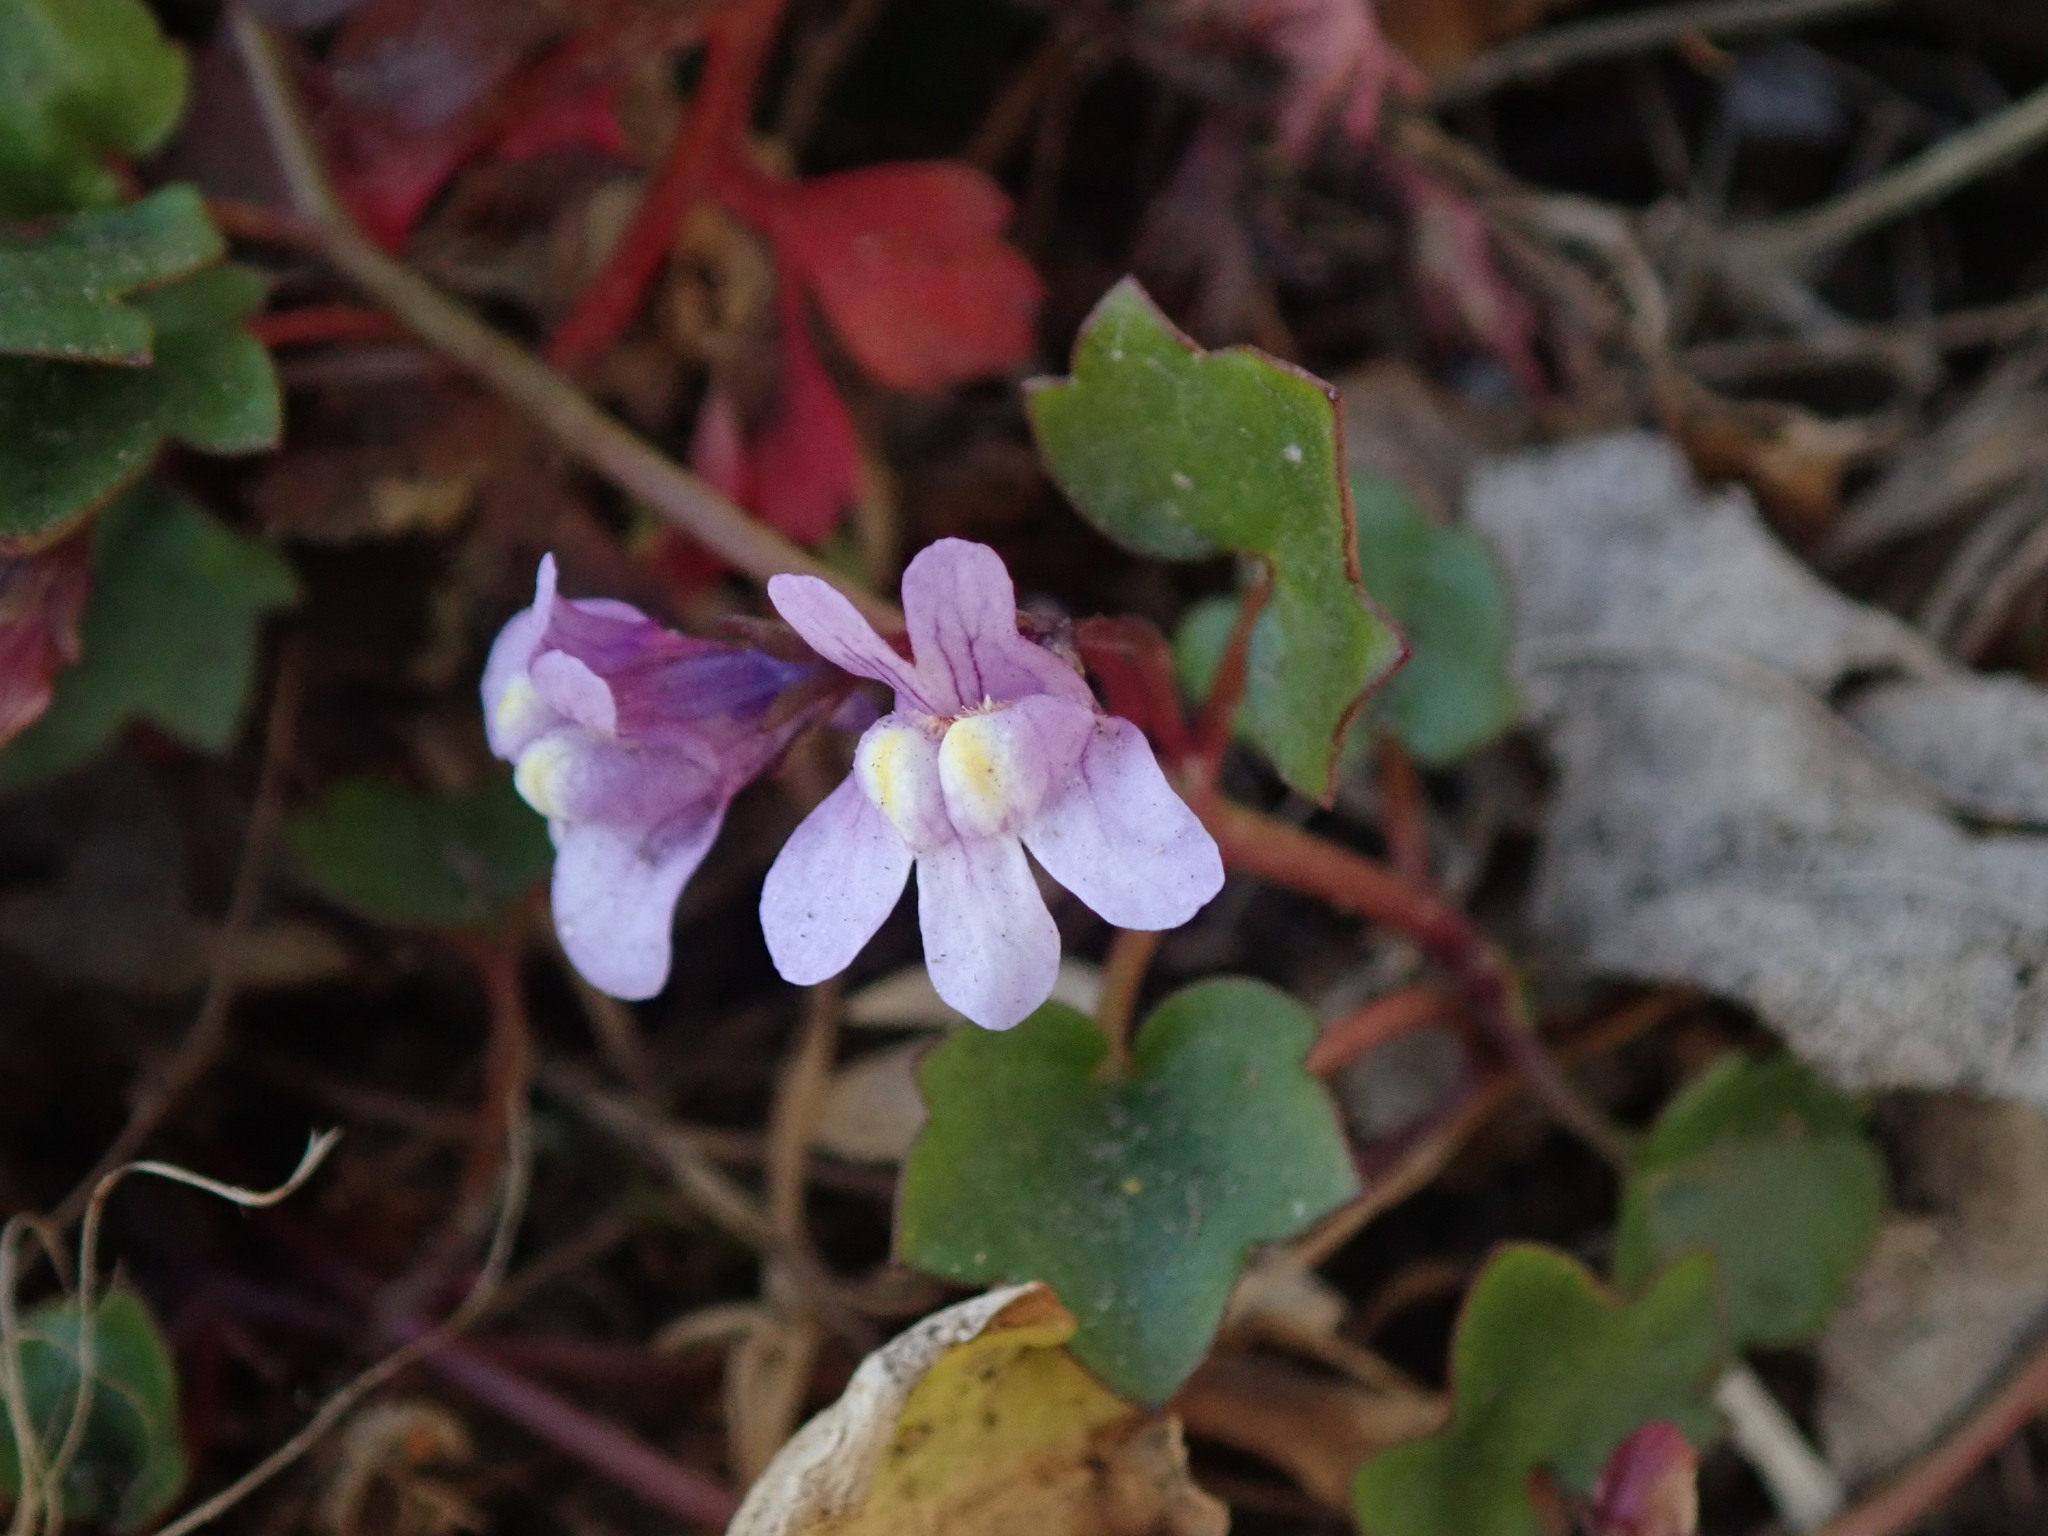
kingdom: Plantae
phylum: Tracheophyta
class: Magnoliopsida
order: Lamiales
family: Plantaginaceae
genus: Cymbalaria
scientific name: Cymbalaria muralis
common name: Ivy-leaved toadflax
